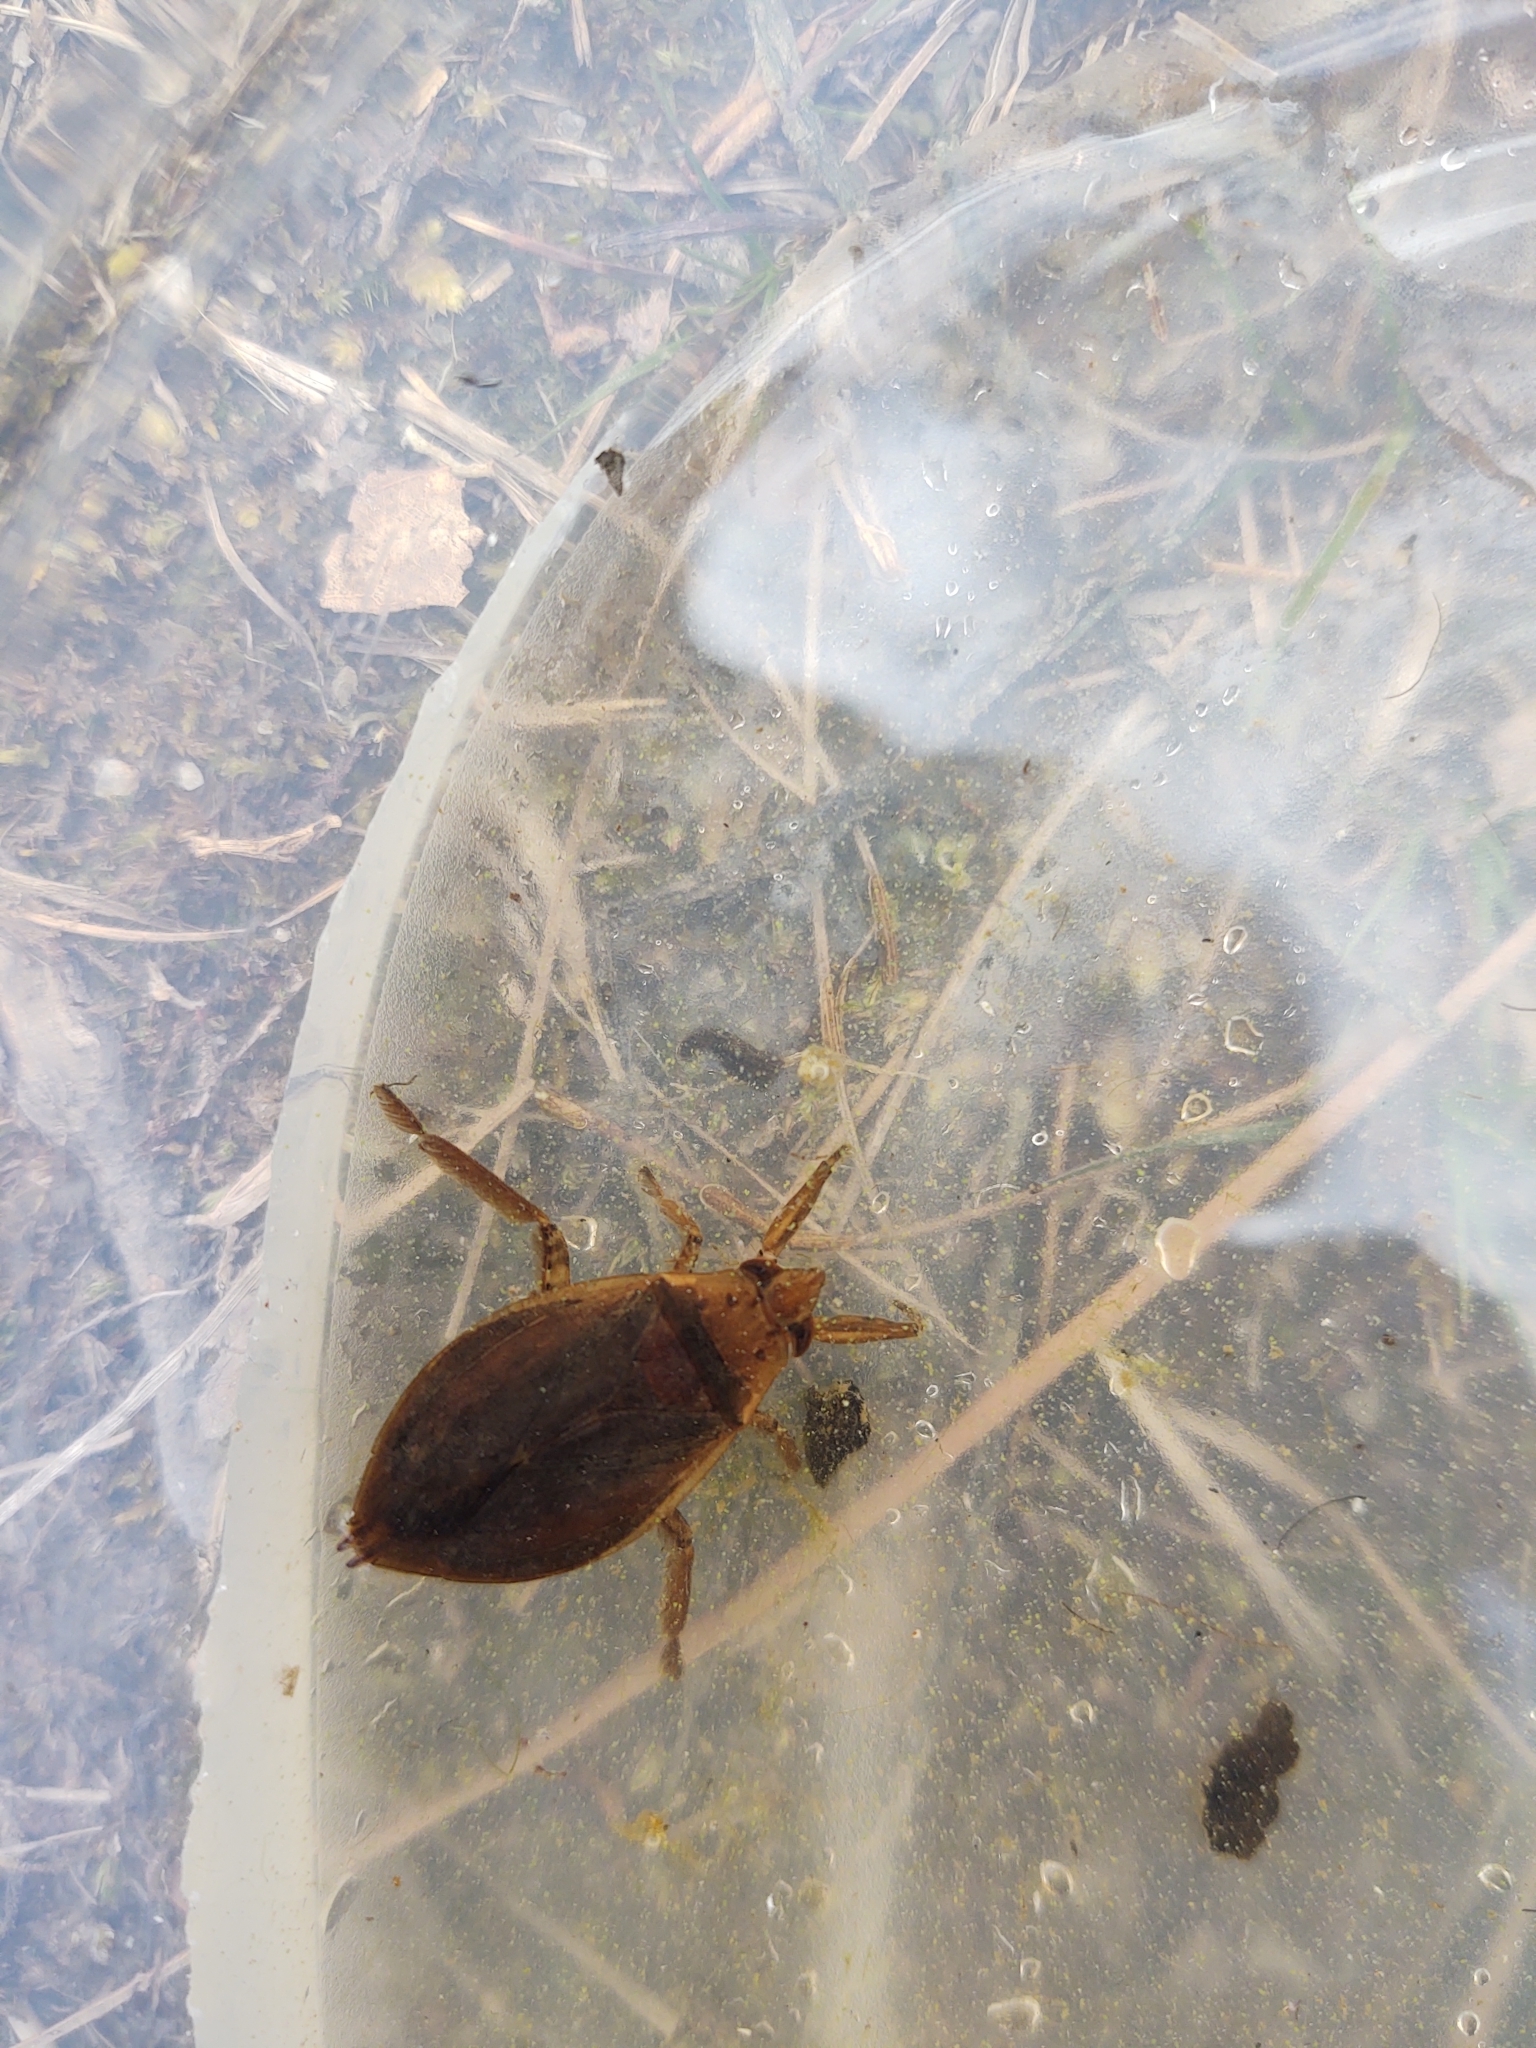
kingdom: Animalia
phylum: Arthropoda
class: Insecta
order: Hemiptera
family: Belostomatidae
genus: Belostoma
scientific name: Belostoma
